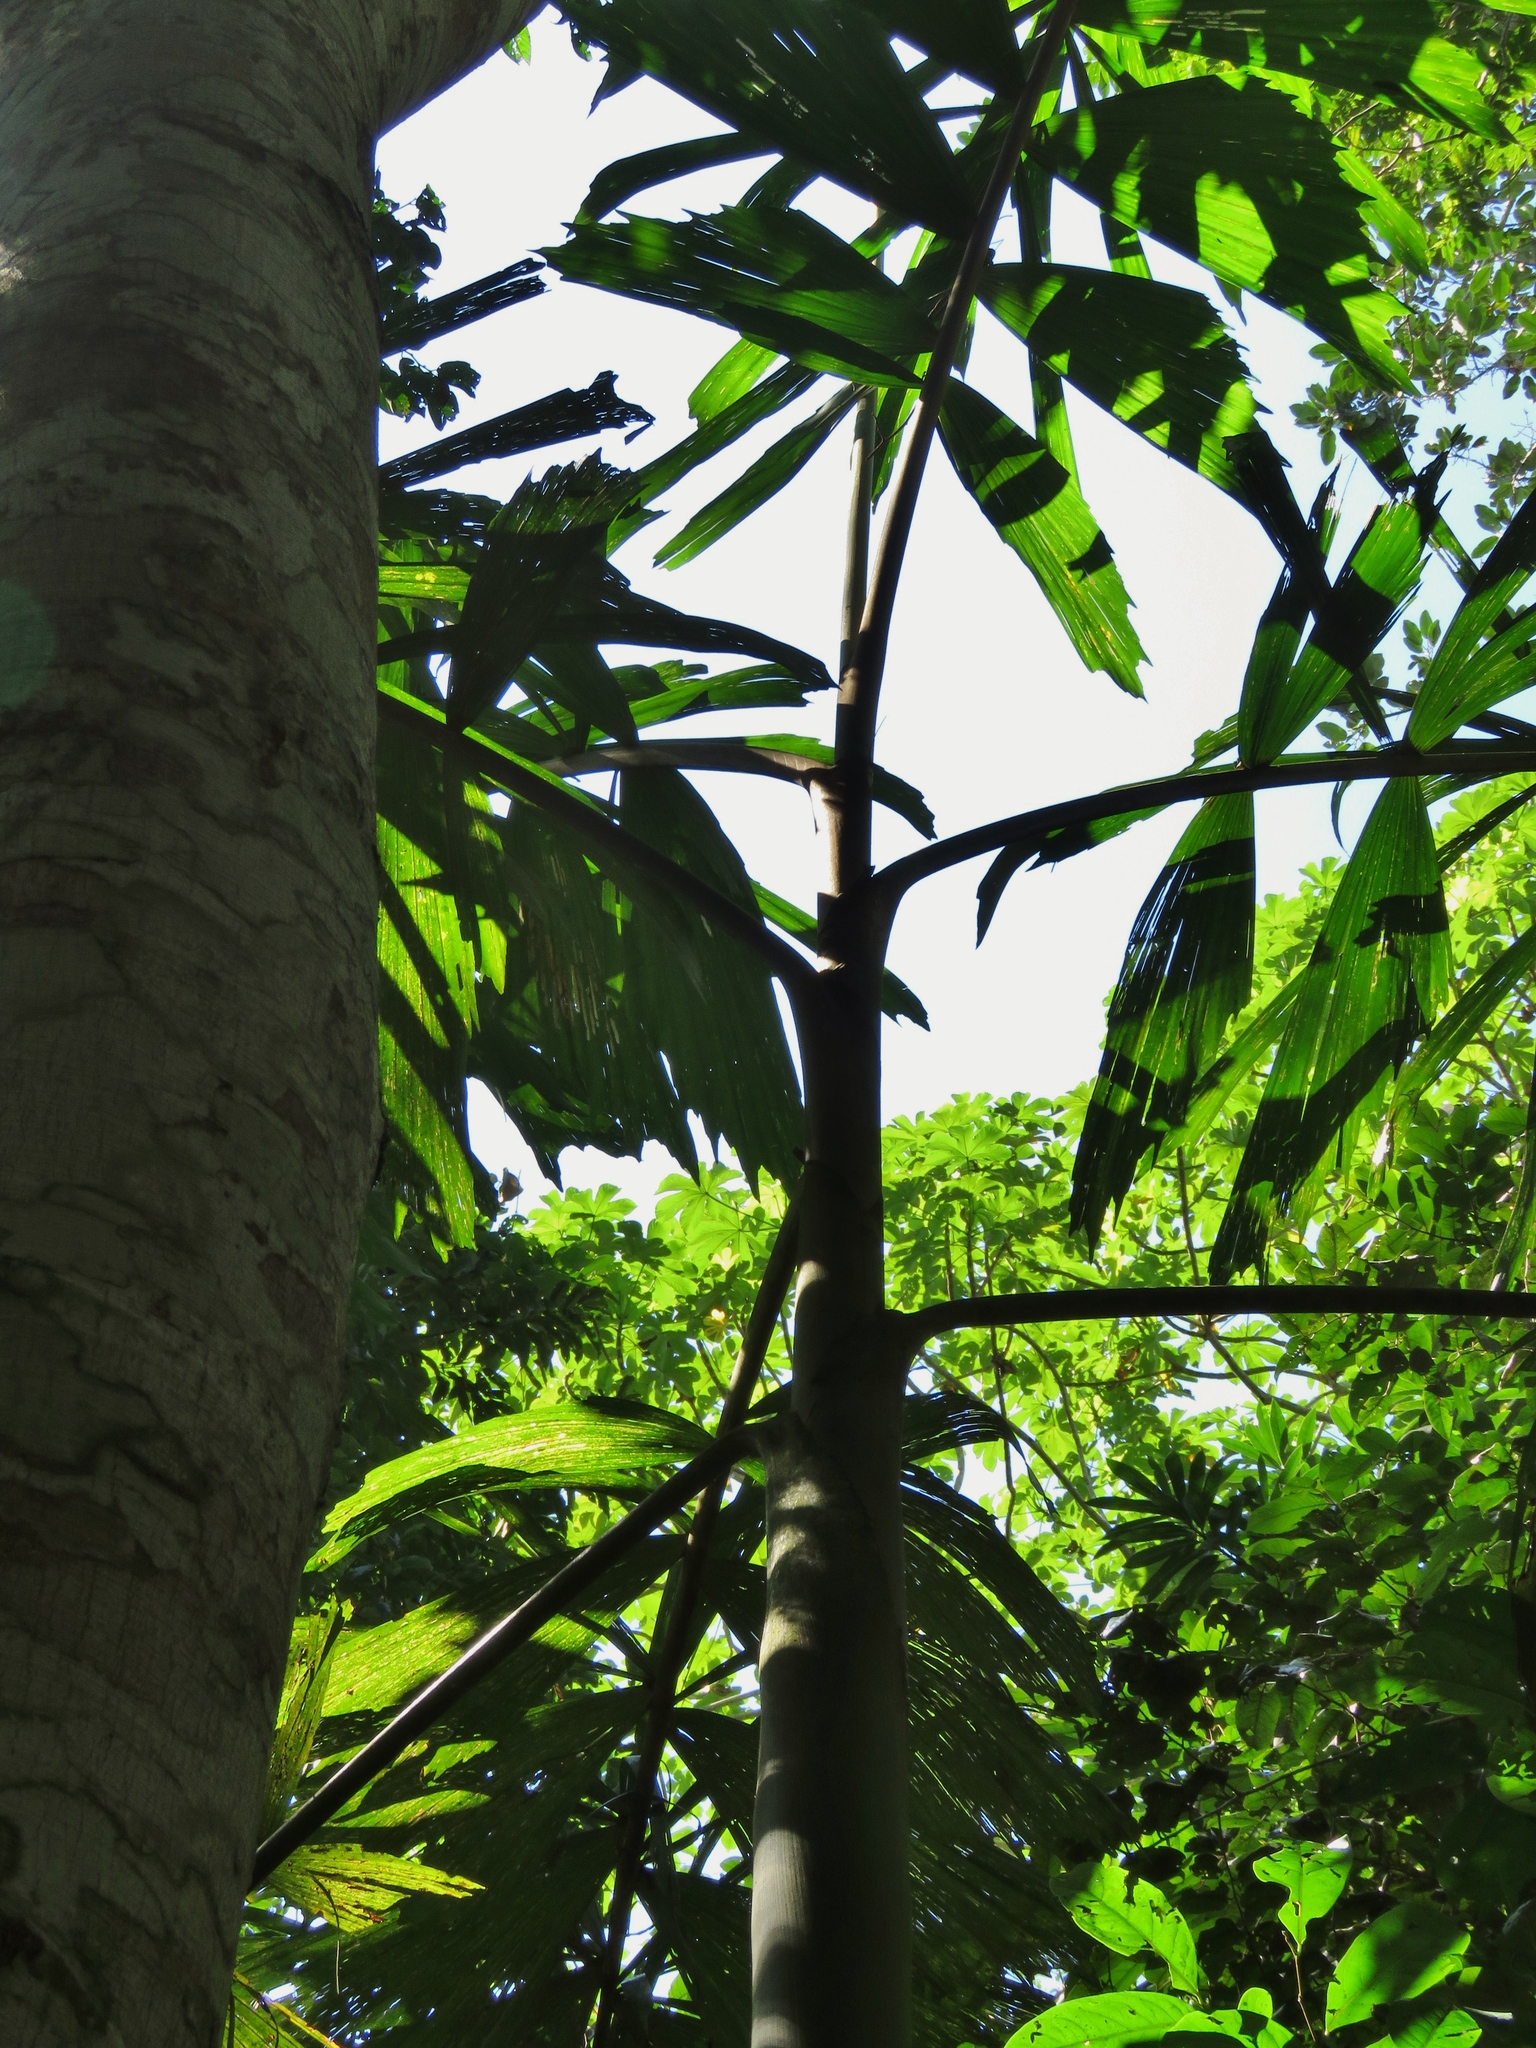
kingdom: Plantae
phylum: Tracheophyta
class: Liliopsida
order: Arecales
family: Arecaceae
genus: Socratea
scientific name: Socratea exorrhiza
